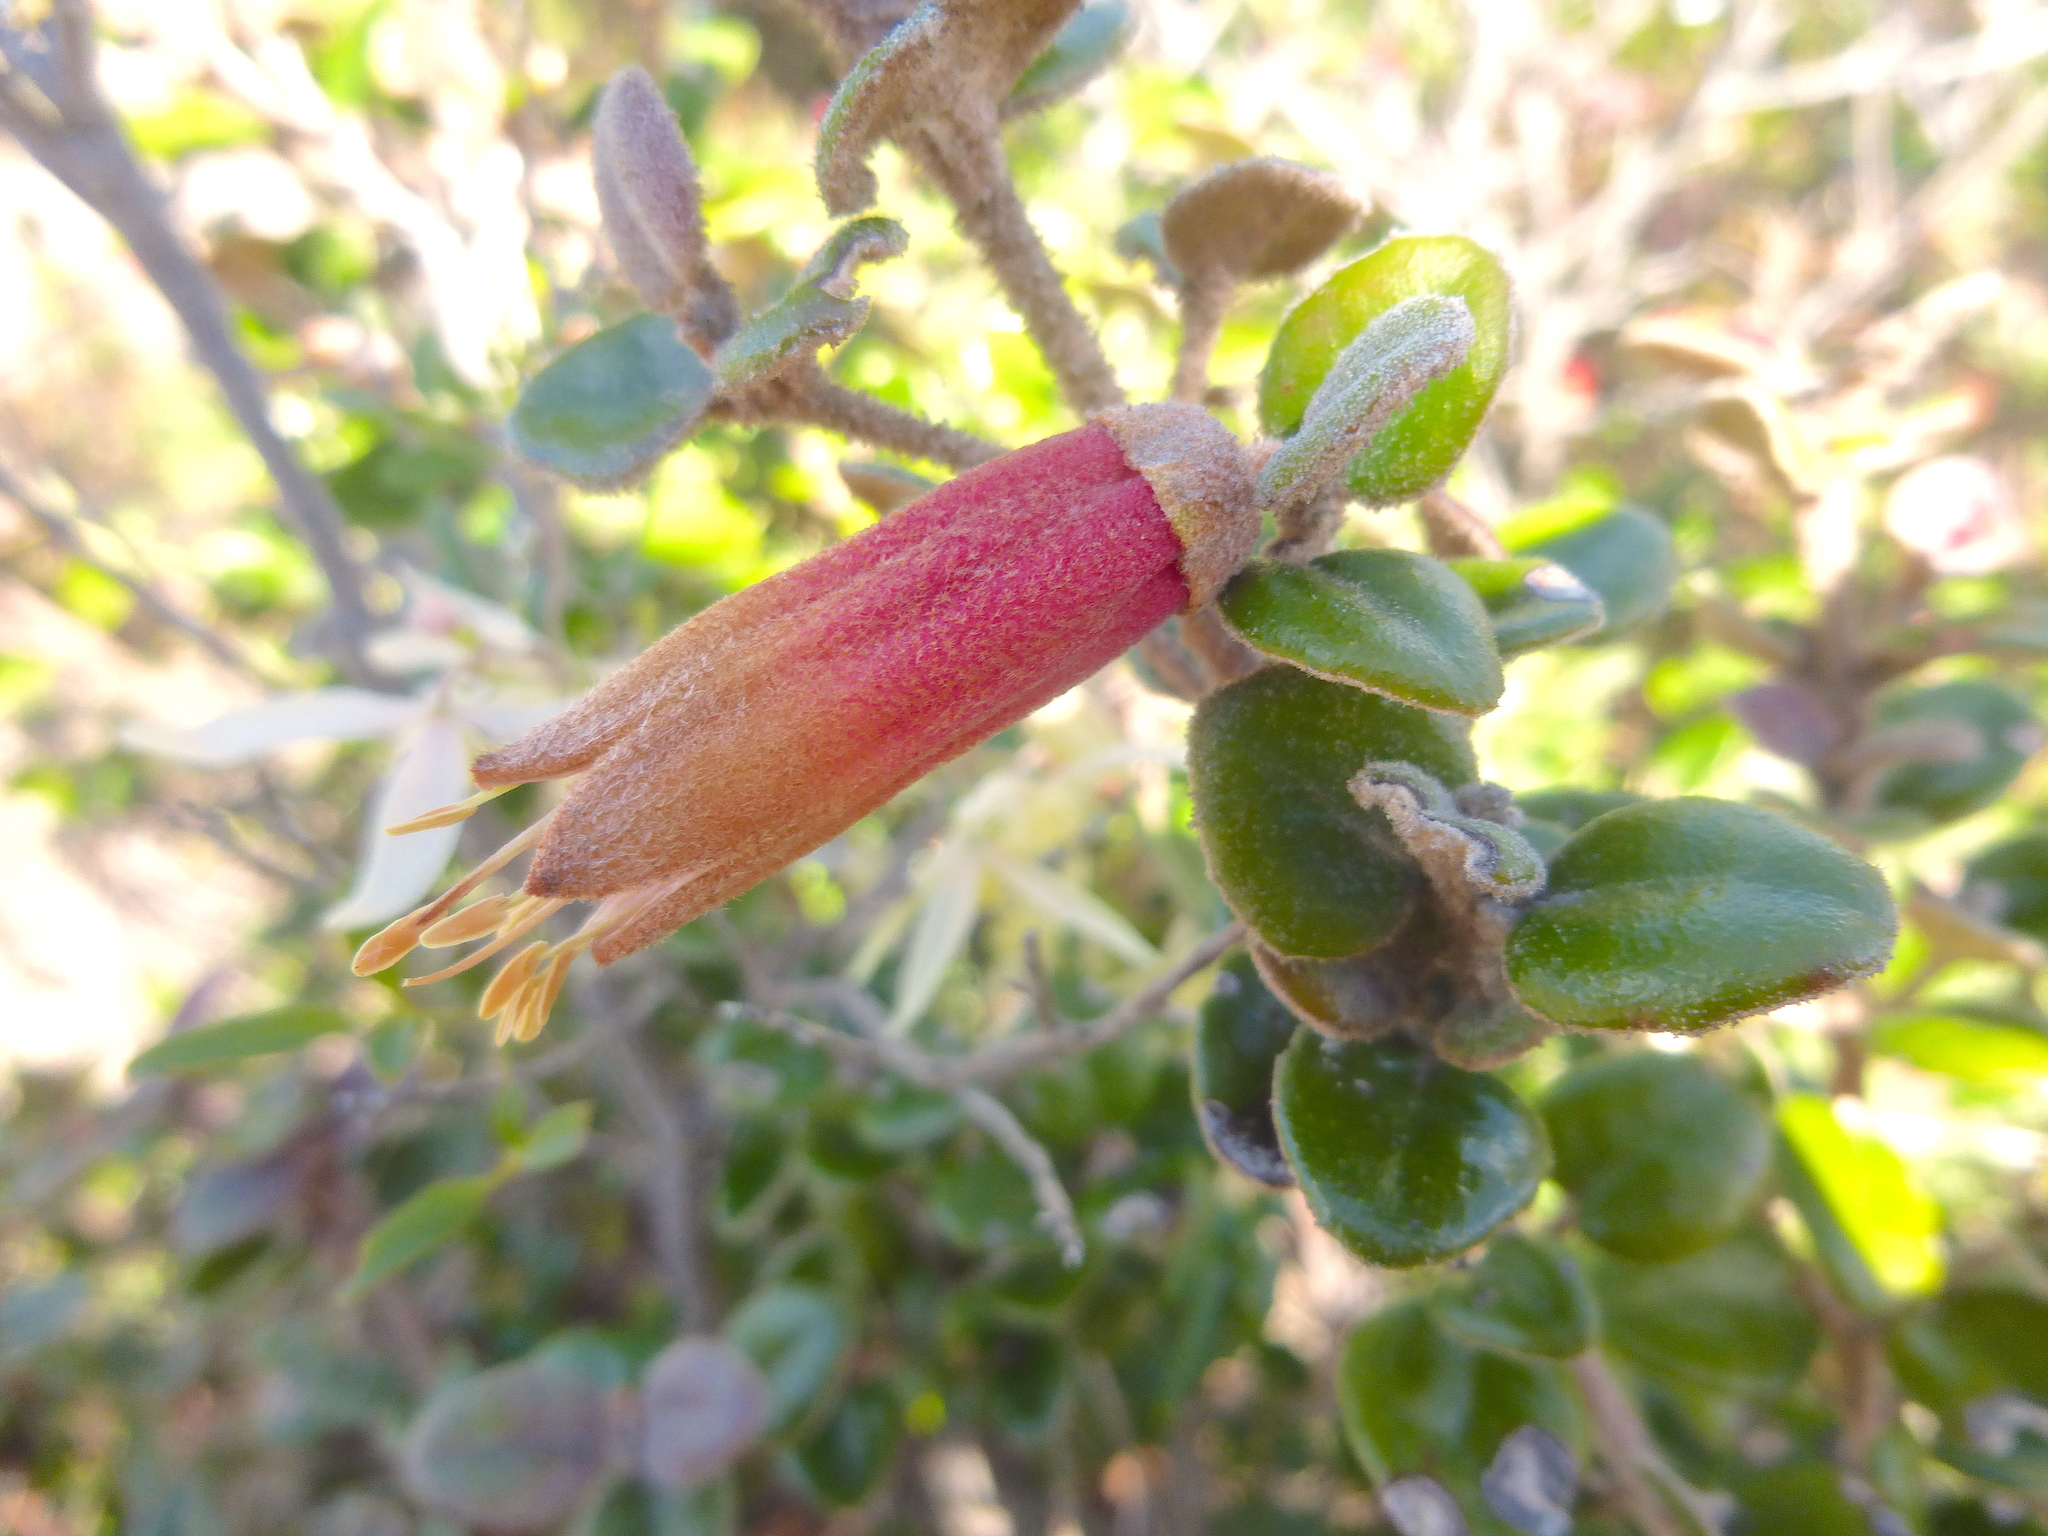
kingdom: Plantae
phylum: Tracheophyta
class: Magnoliopsida
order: Sapindales
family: Rutaceae
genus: Correa
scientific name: Correa backhouseana
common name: Tasmanian-fuchsia
